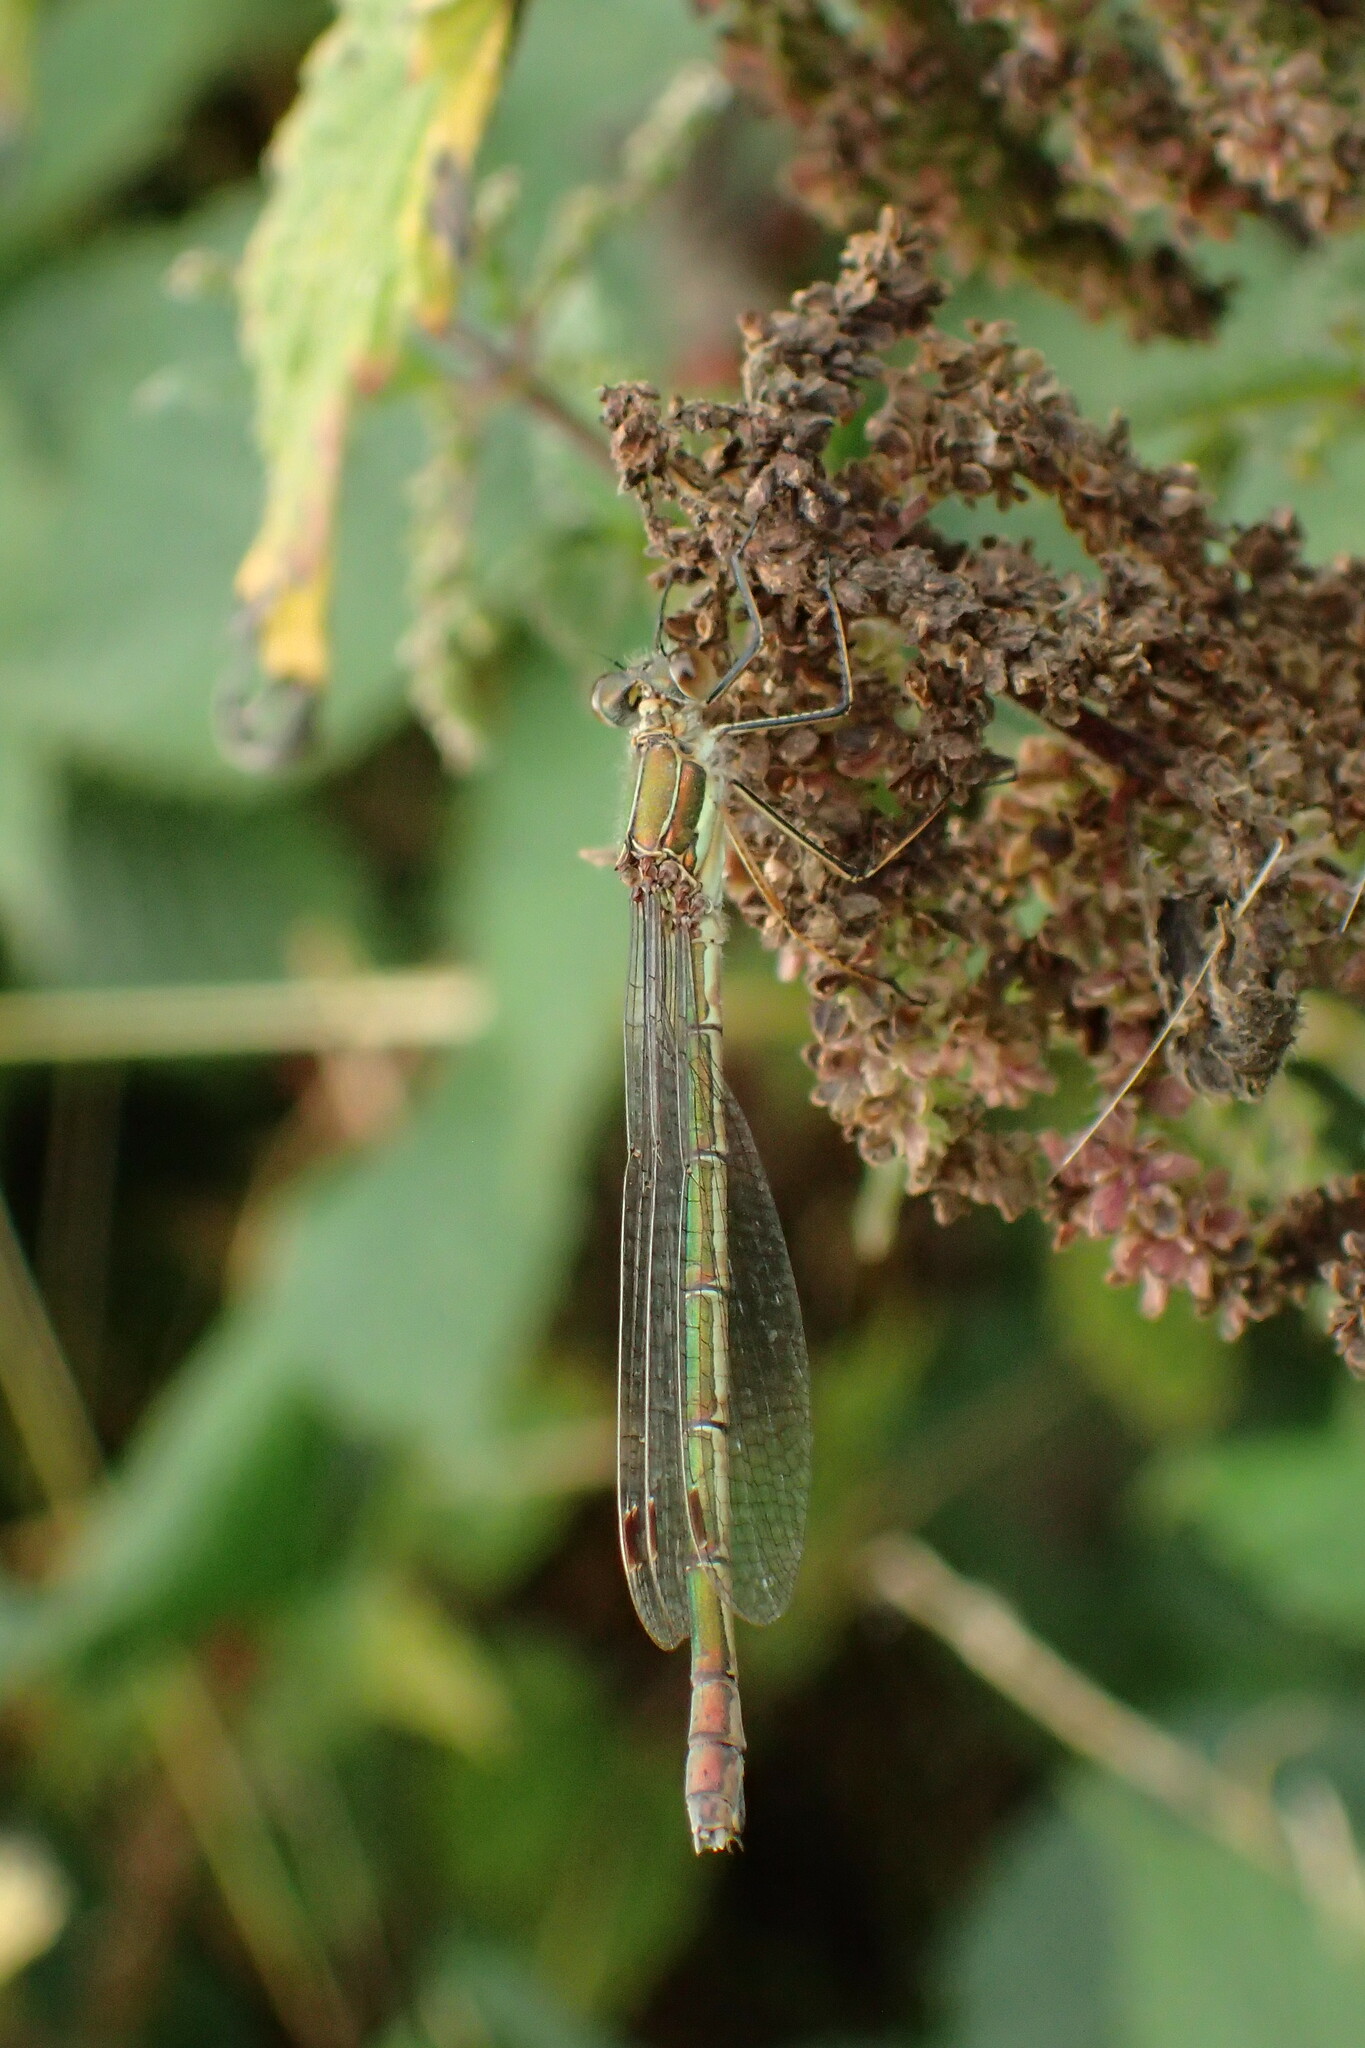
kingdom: Animalia
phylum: Arthropoda
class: Insecta
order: Odonata
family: Lestidae
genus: Lestes
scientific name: Lestes sponsa
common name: Common spreadwing
